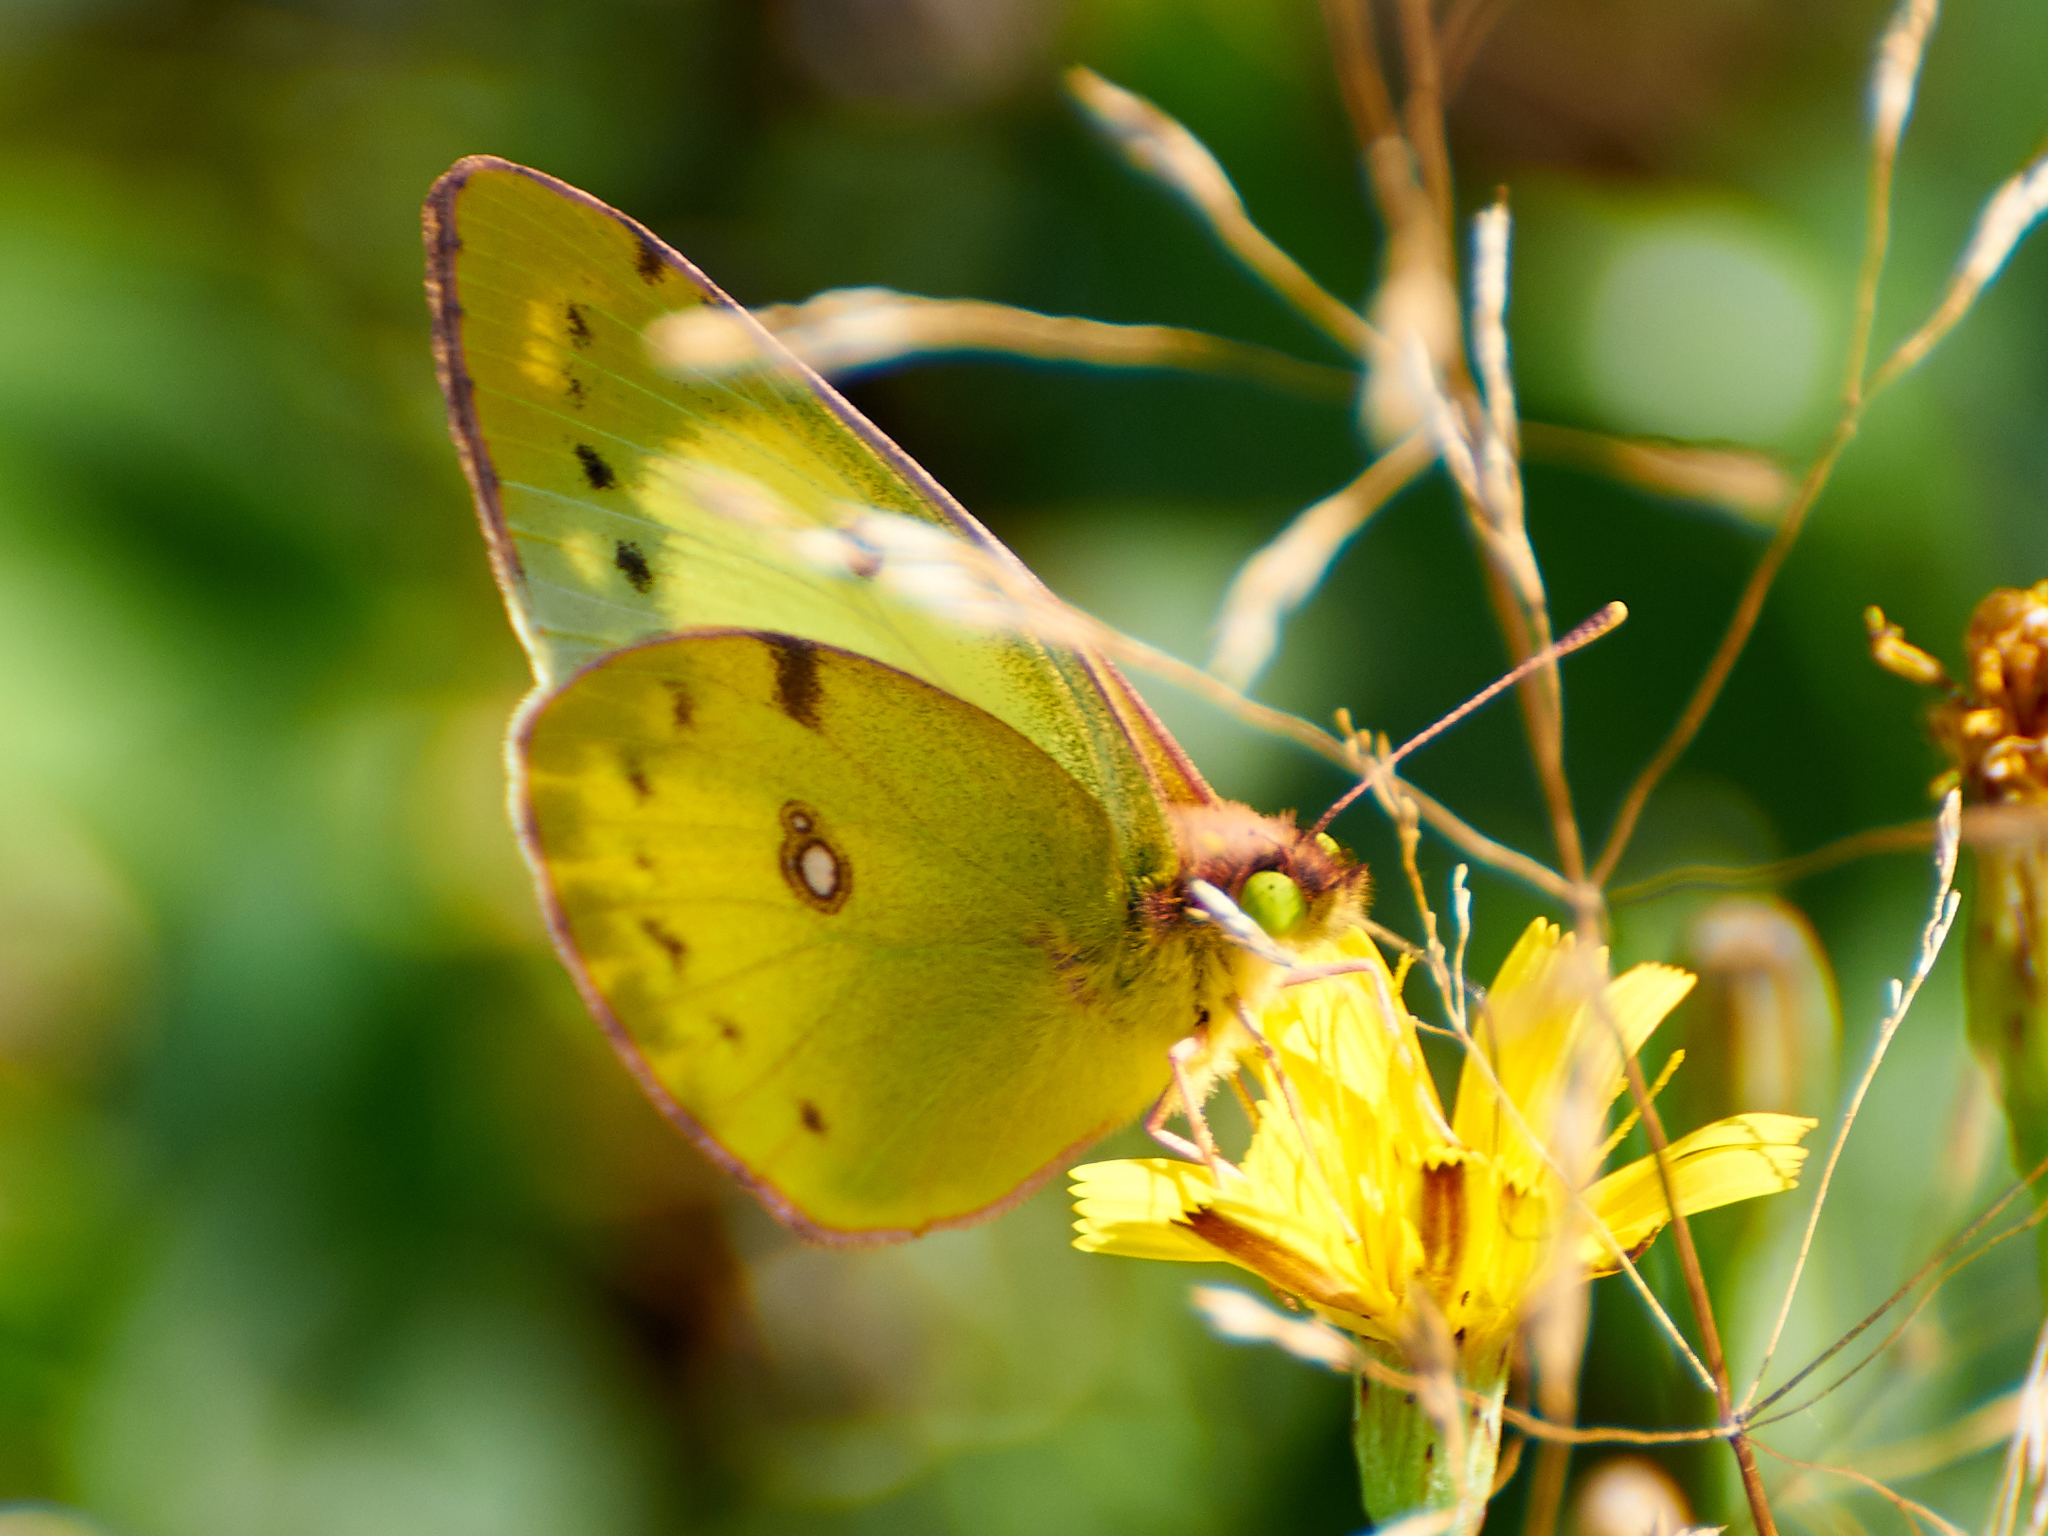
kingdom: Animalia
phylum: Arthropoda
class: Insecta
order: Lepidoptera
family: Pieridae
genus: Colias
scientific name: Colias hyale
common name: Pale clouded yellow
